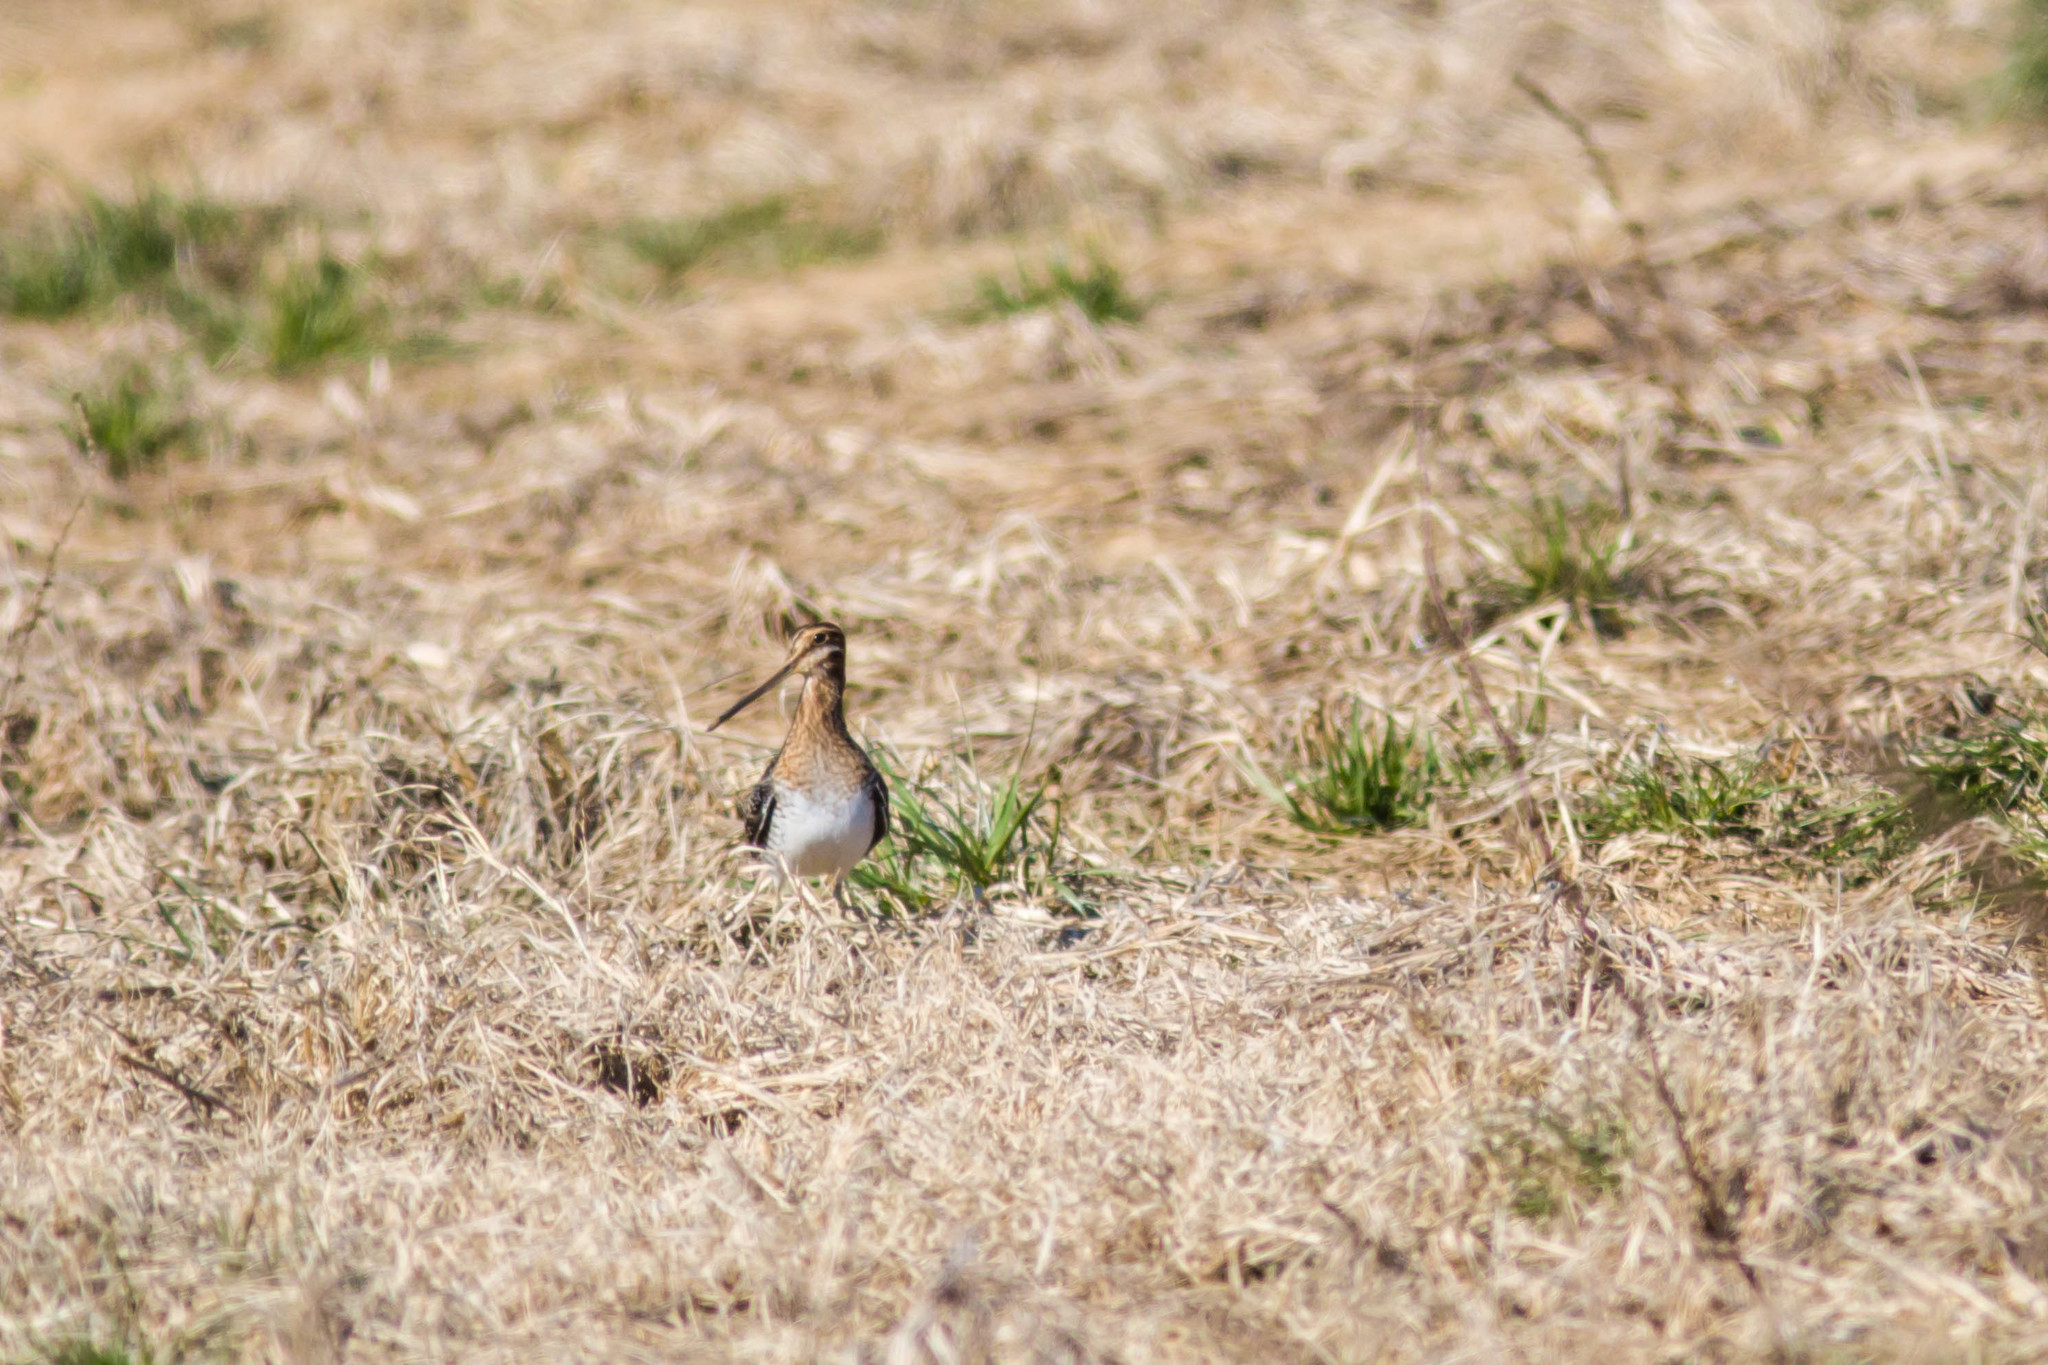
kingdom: Animalia
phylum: Chordata
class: Aves
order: Charadriiformes
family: Scolopacidae
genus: Gallinago
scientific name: Gallinago delicata
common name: Wilson's snipe
